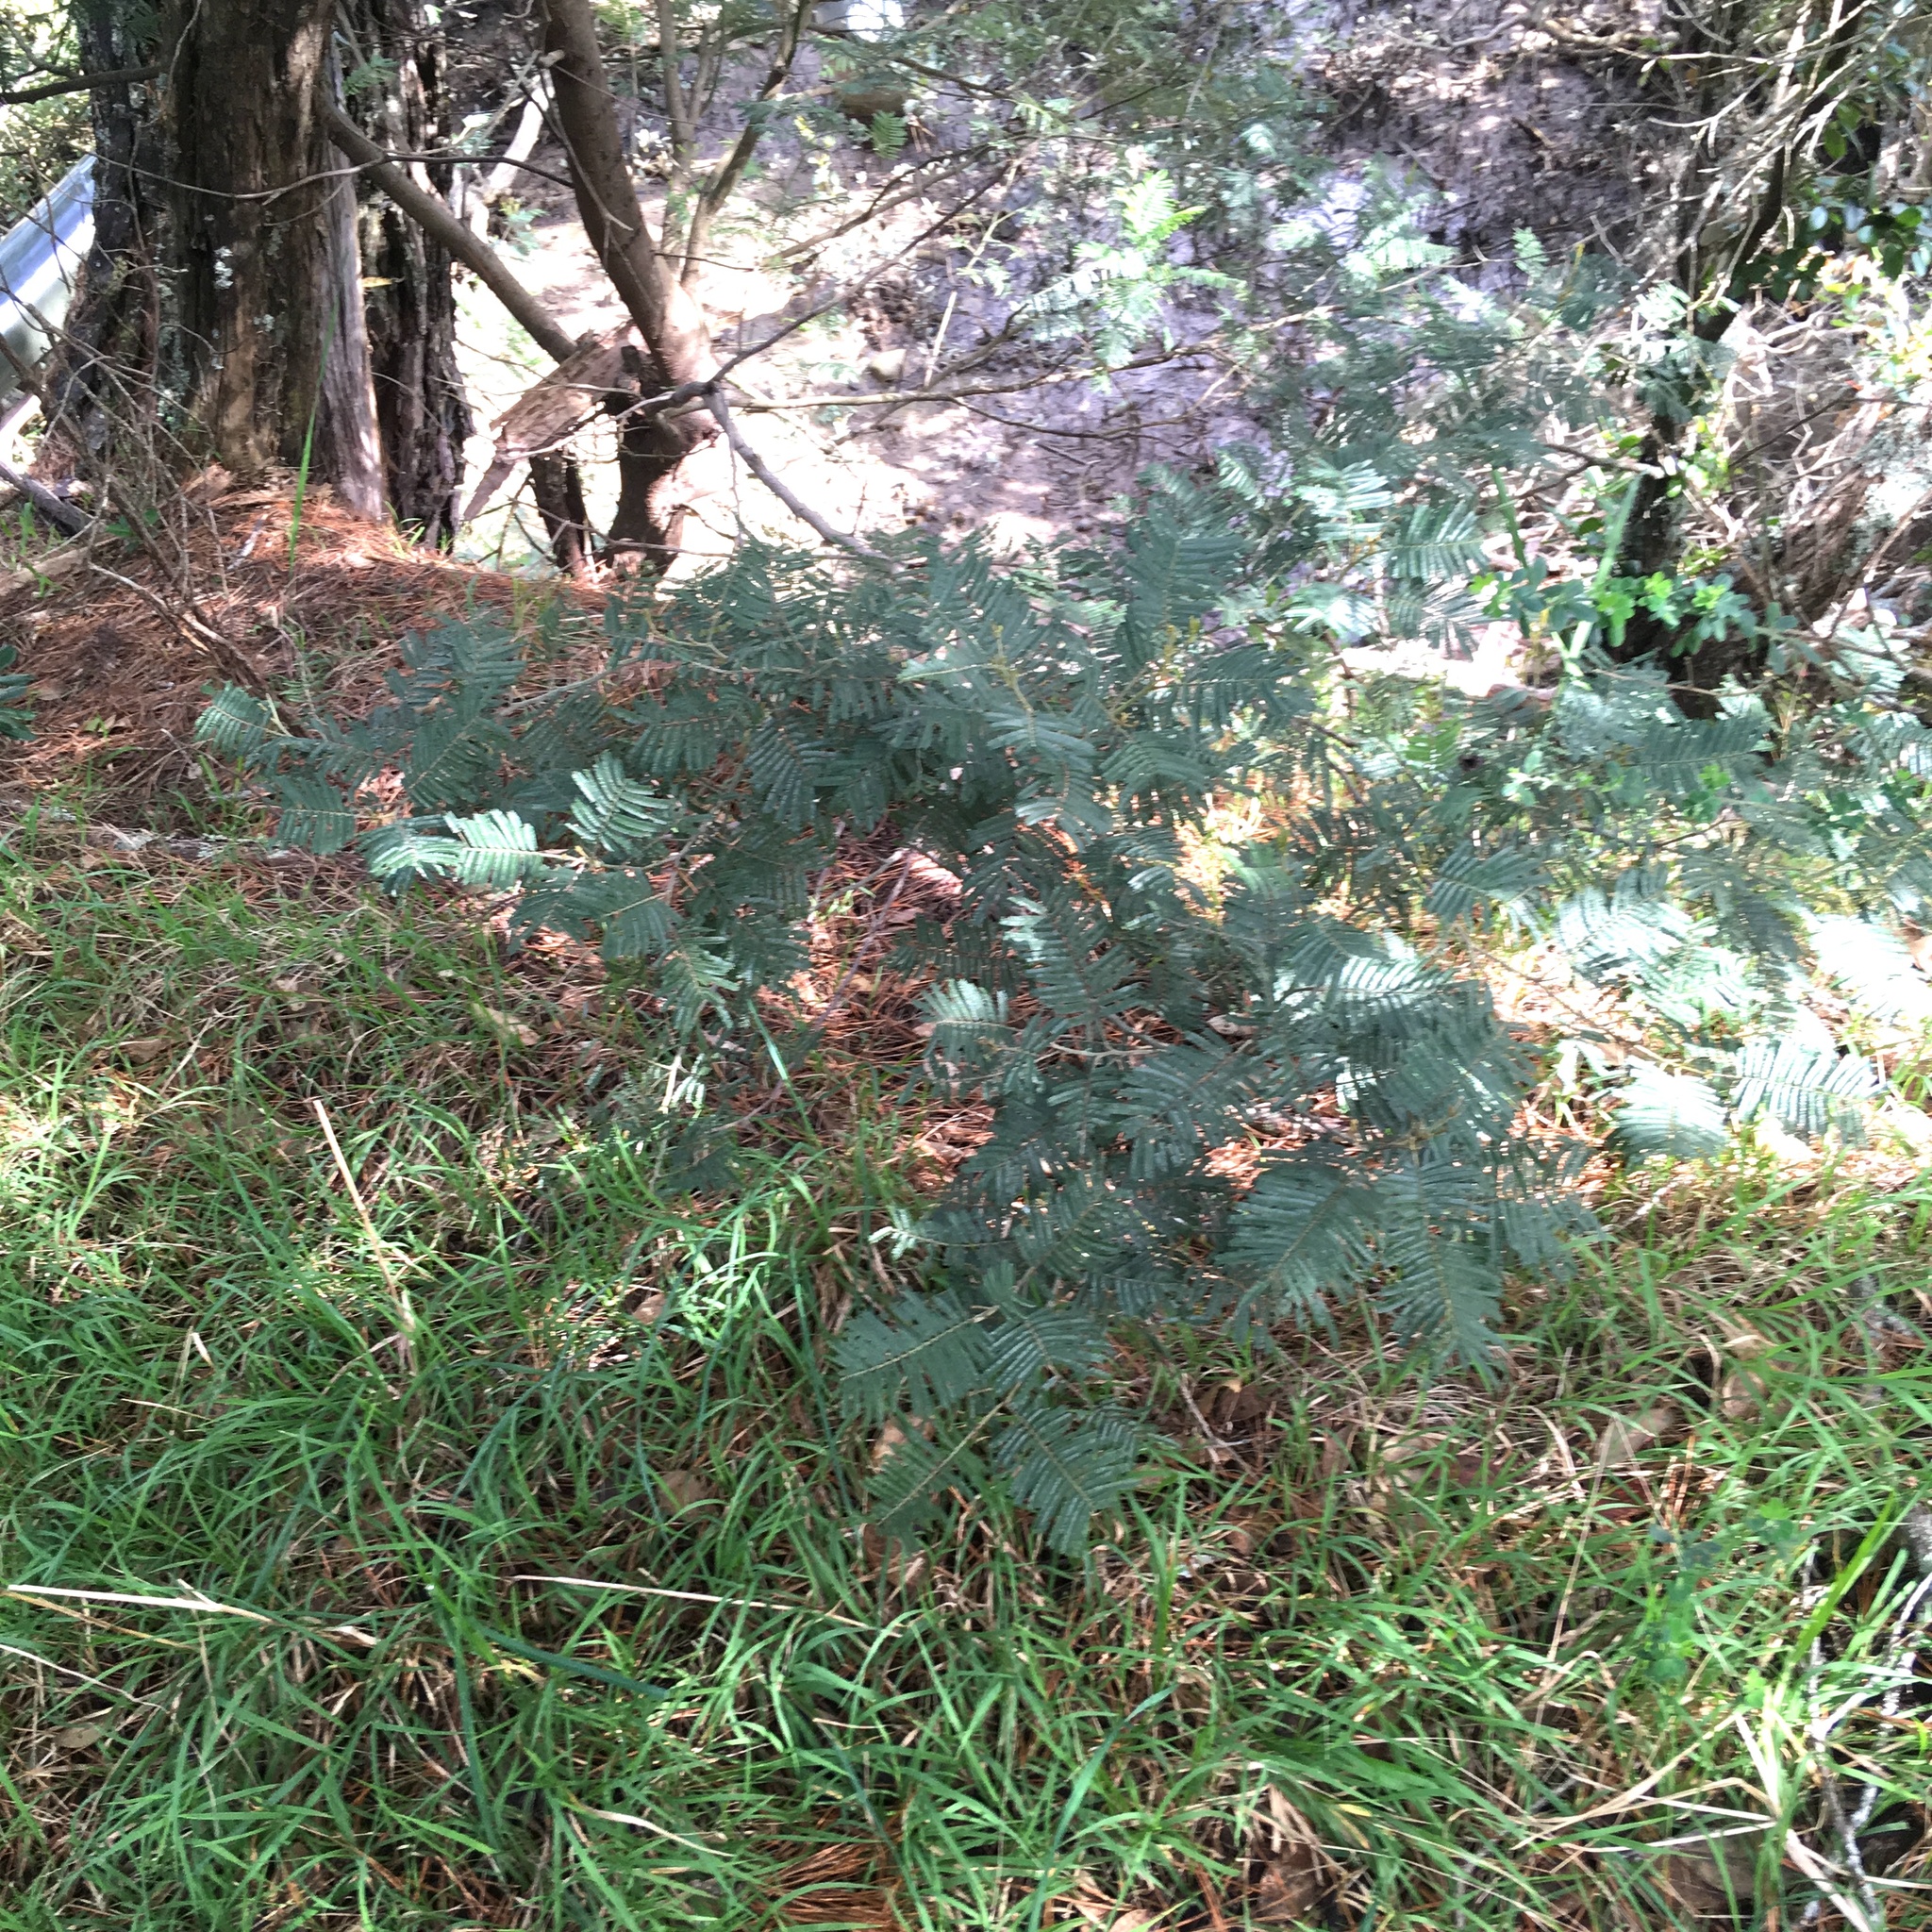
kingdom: Plantae
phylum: Tracheophyta
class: Pinopsida
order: Pinales
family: Pinaceae
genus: Pinus
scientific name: Pinus radiata
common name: Monterey pine
